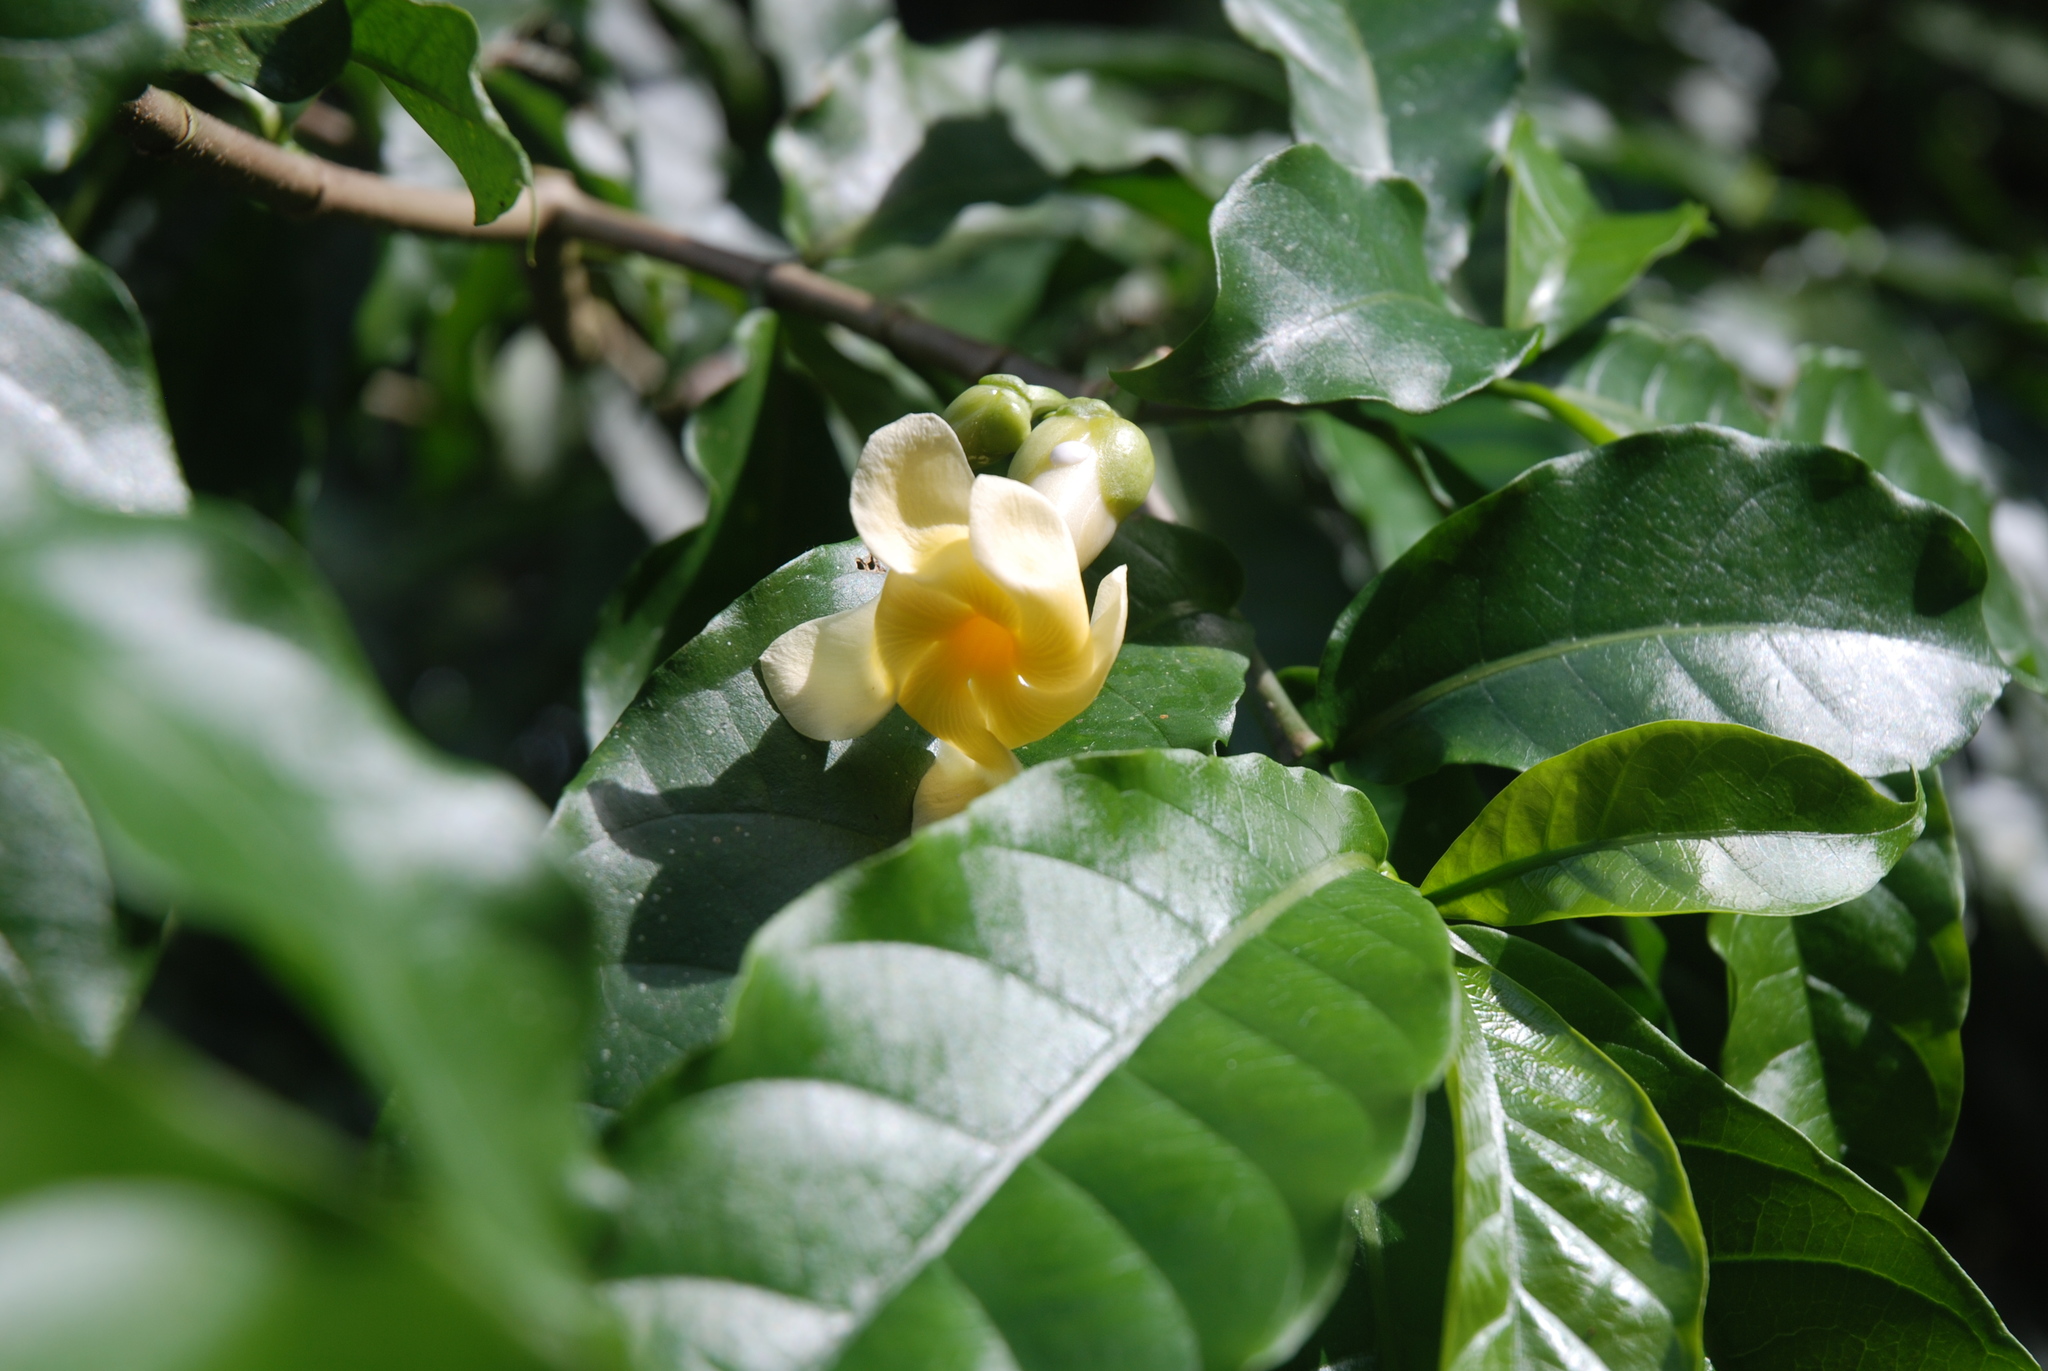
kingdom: Plantae
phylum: Tracheophyta
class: Magnoliopsida
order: Gentianales
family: Apocynaceae
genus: Tabernaemontana
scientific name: Tabernaemontana donnell-smithii
